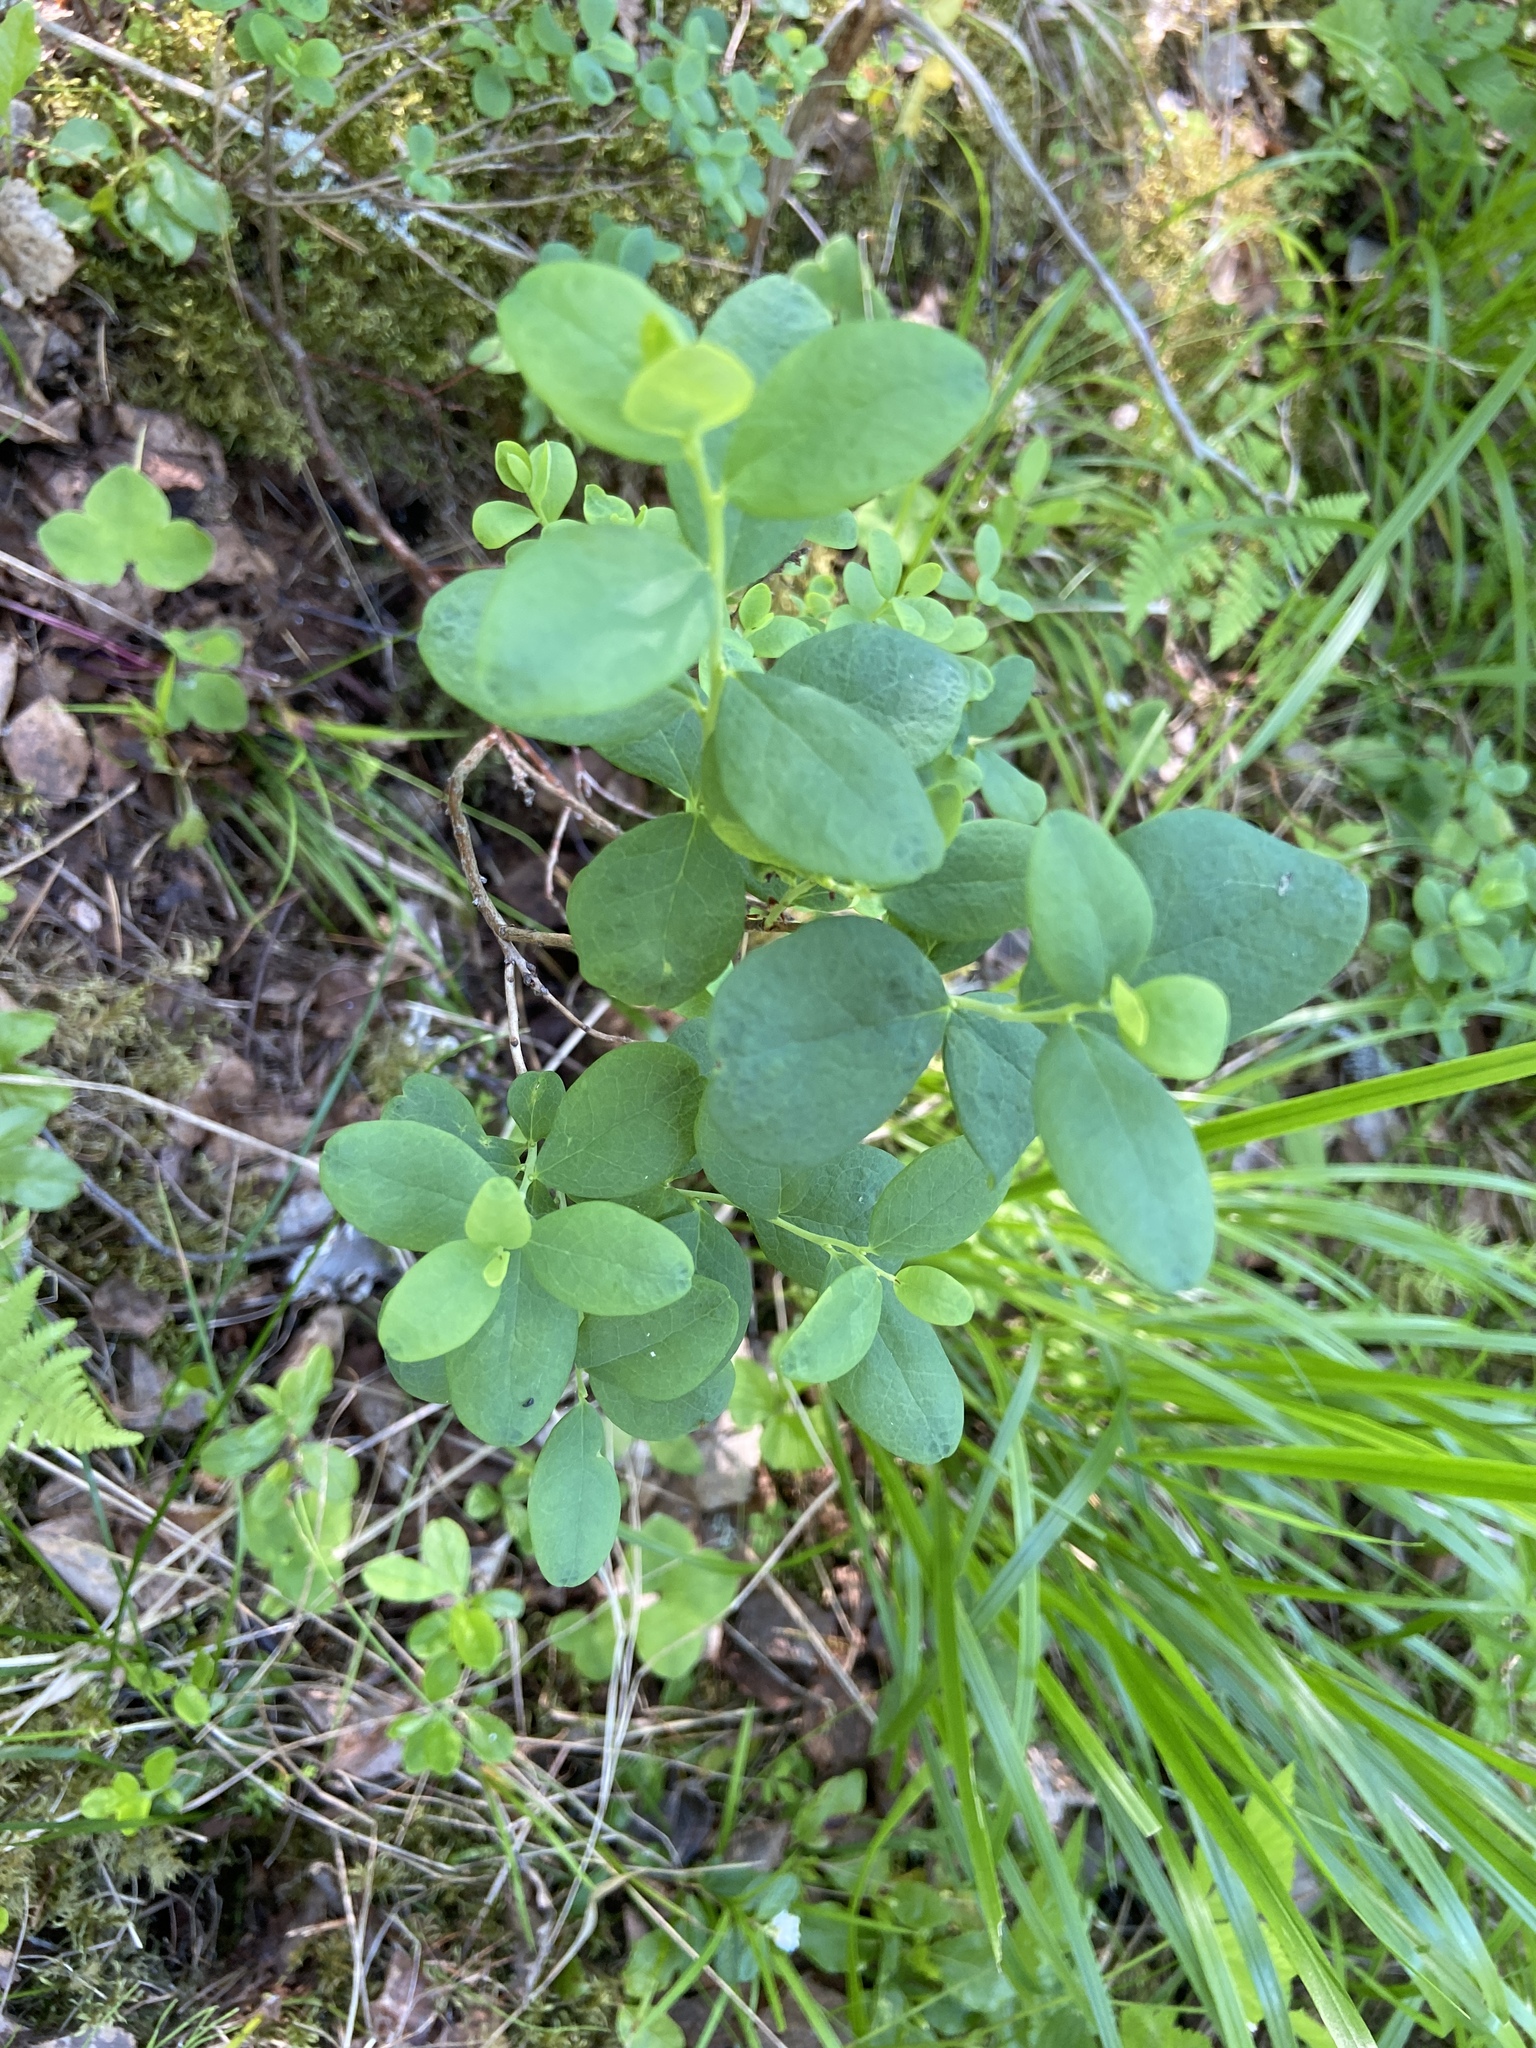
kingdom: Plantae
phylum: Tracheophyta
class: Magnoliopsida
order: Ericales
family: Ericaceae
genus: Vaccinium
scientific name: Vaccinium uliginosum
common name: Bog bilberry
